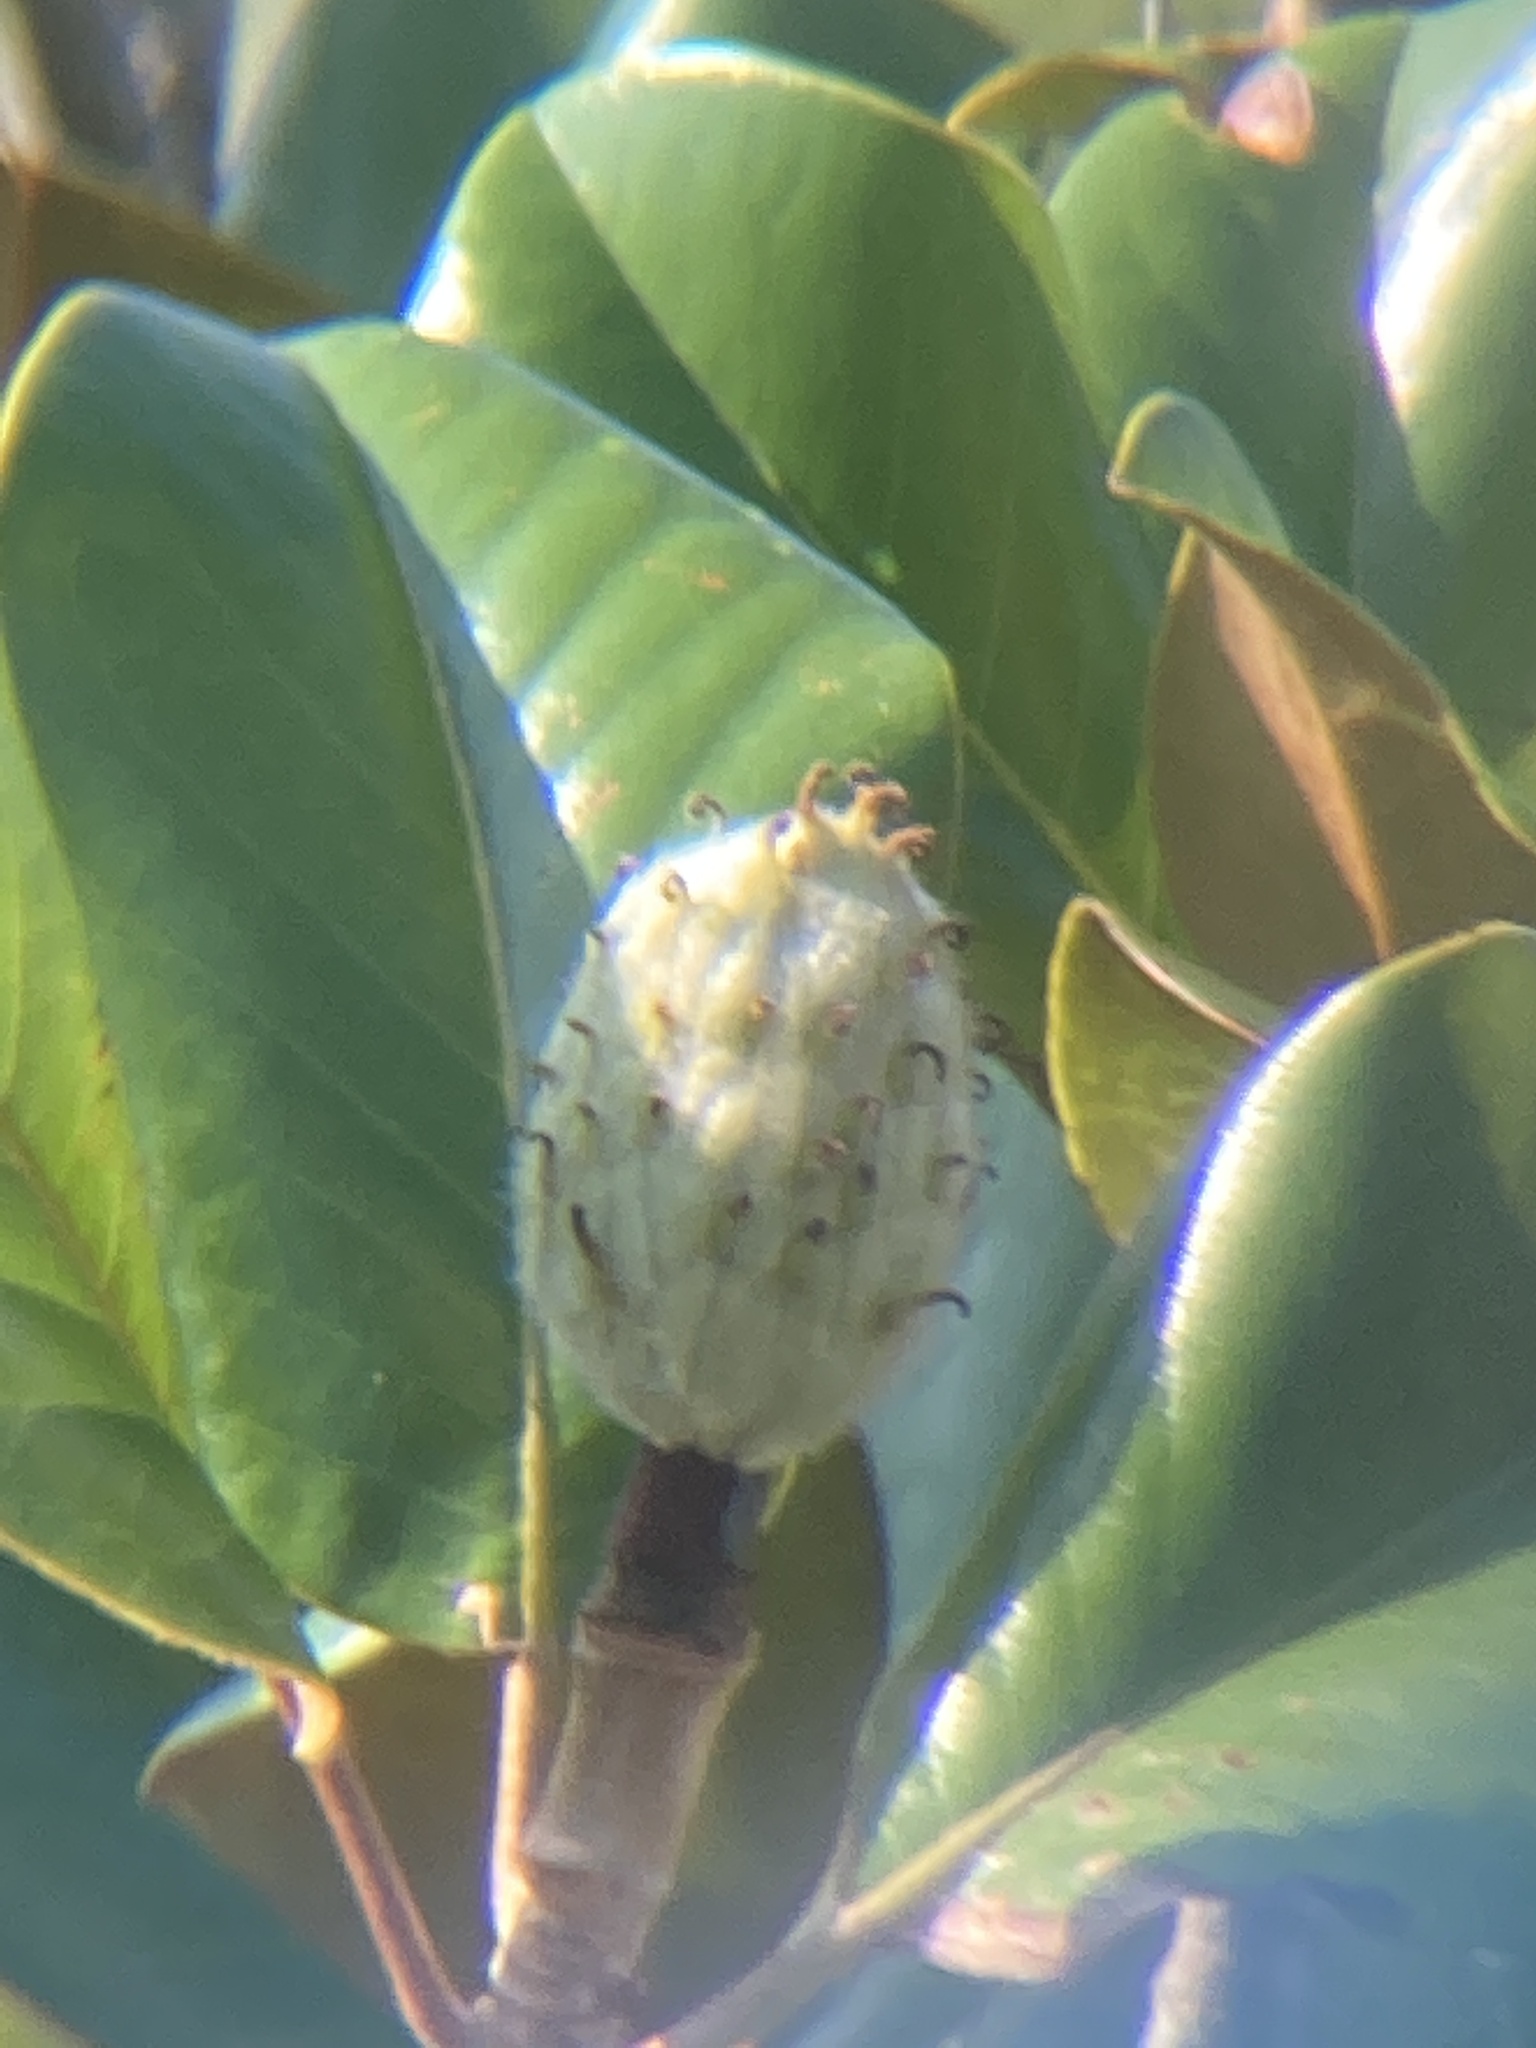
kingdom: Plantae
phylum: Tracheophyta
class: Magnoliopsida
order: Magnoliales
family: Magnoliaceae
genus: Magnolia
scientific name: Magnolia grandiflora
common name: Southern magnolia
